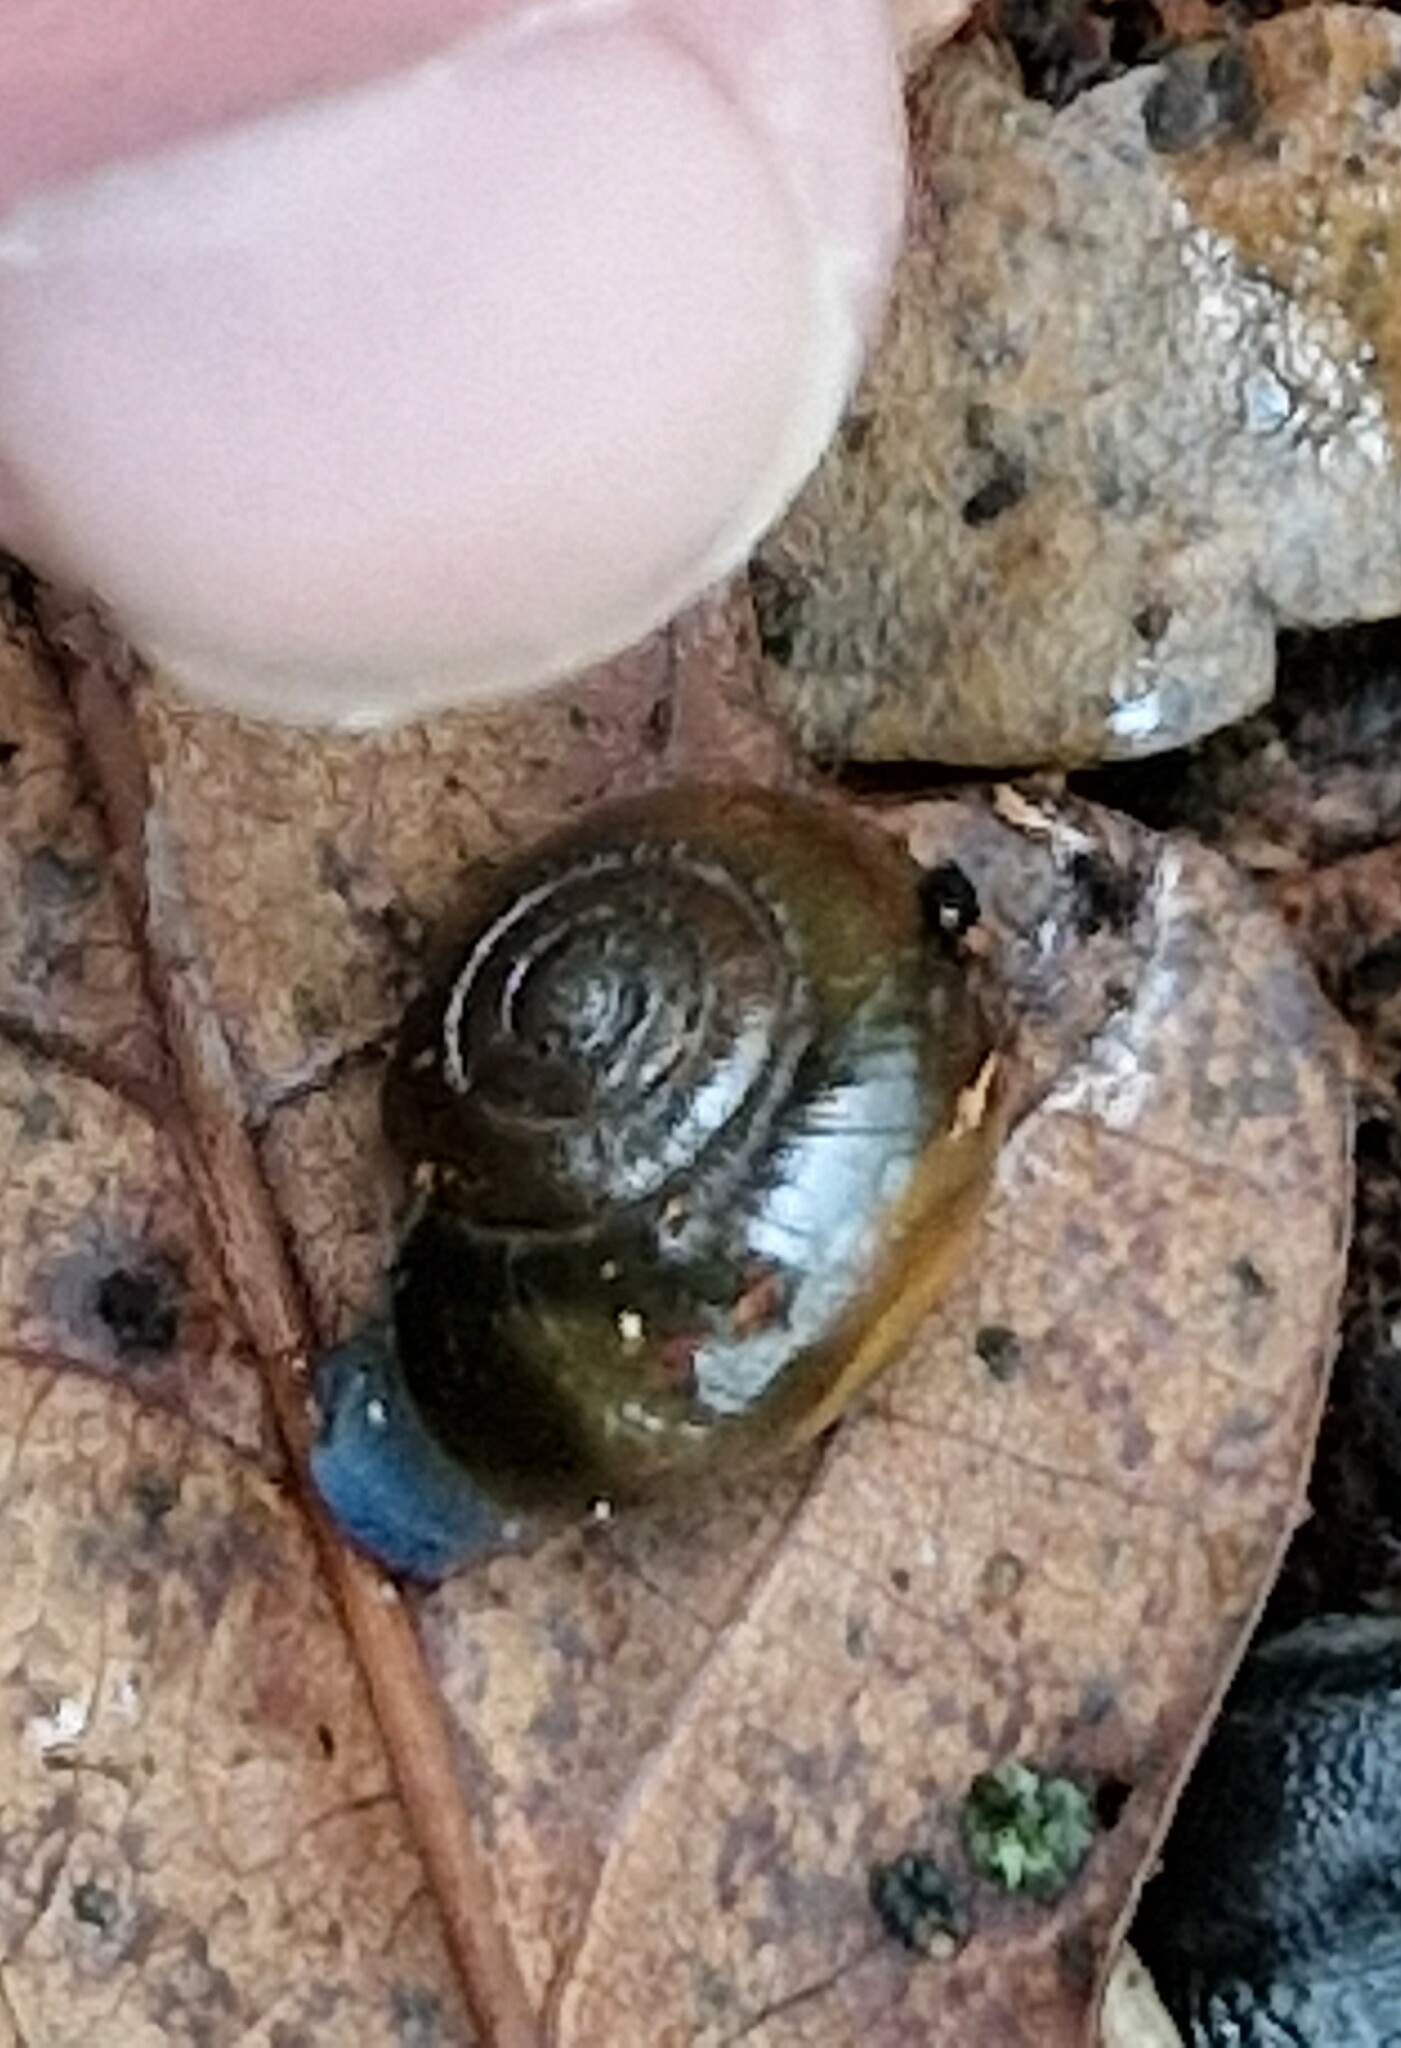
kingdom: Animalia
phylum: Mollusca
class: Gastropoda
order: Stylommatophora
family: Oxychilidae
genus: Oxychilus
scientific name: Oxychilus draparnaudi
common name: Draparnaud's glass snail
